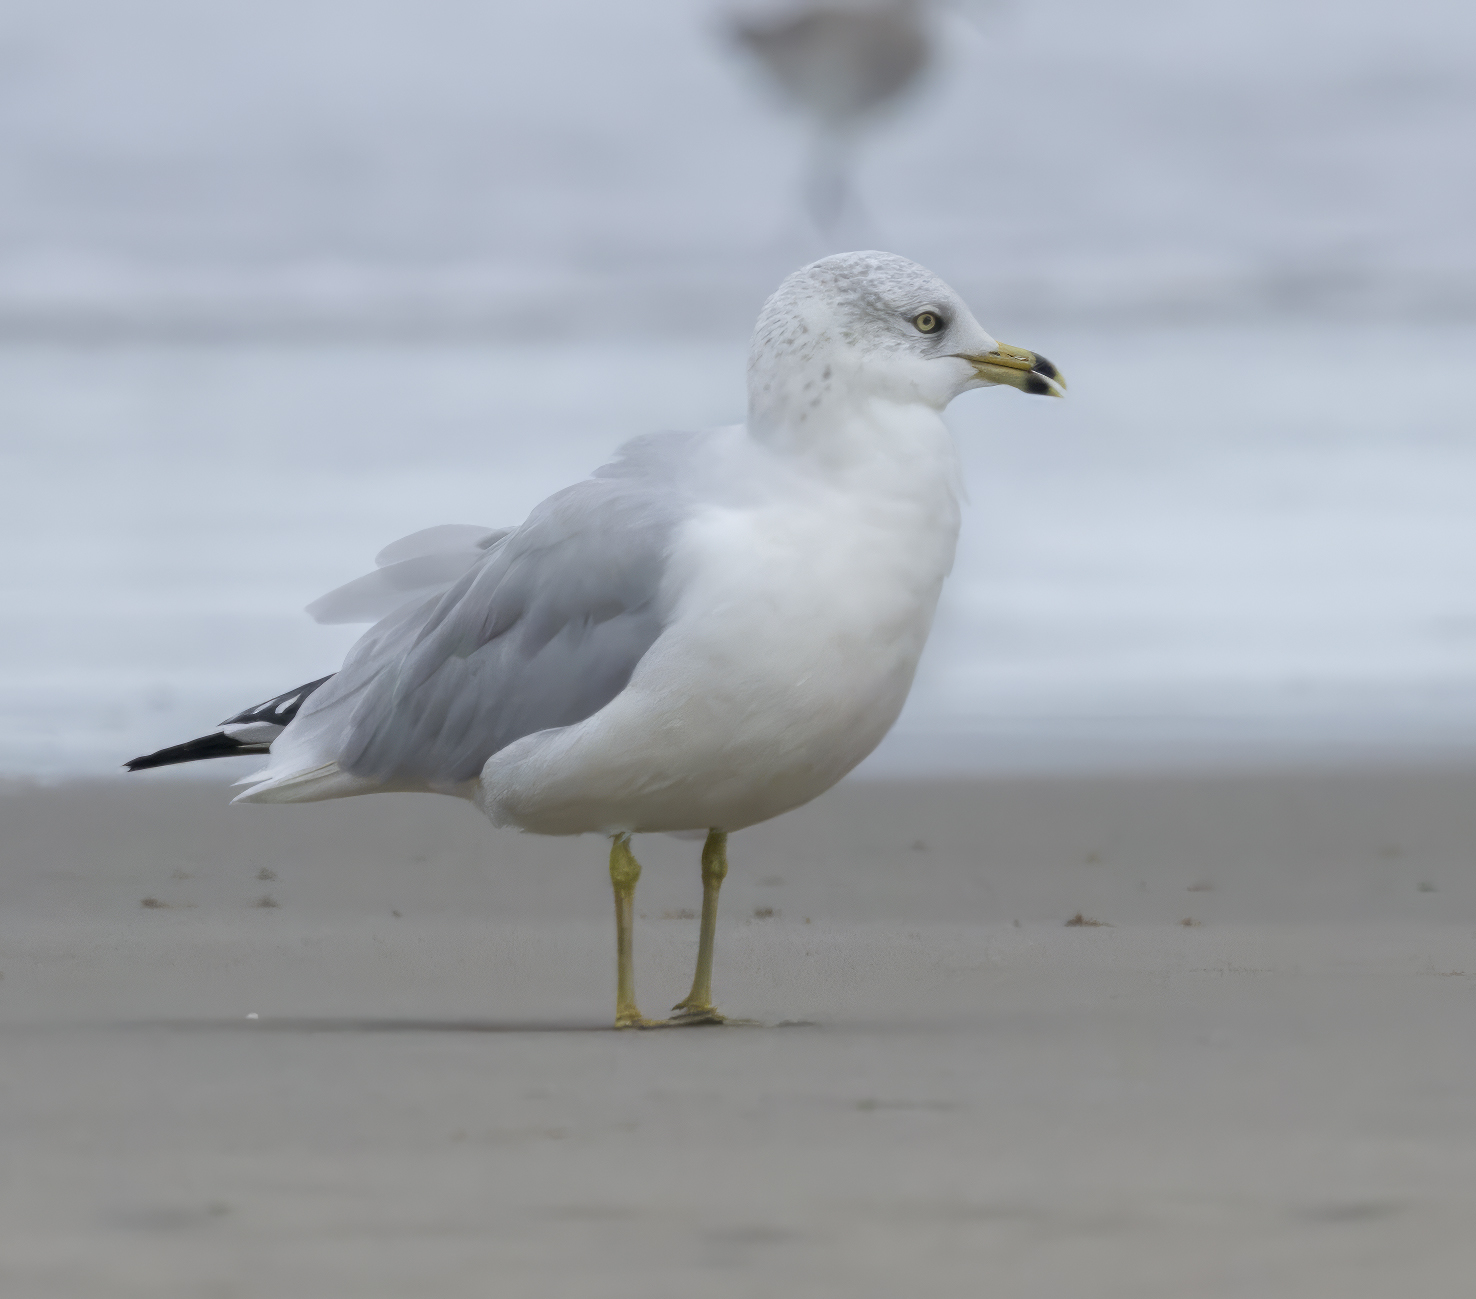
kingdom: Animalia
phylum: Chordata
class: Aves
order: Charadriiformes
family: Laridae
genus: Larus
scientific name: Larus delawarensis
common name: Ring-billed gull
